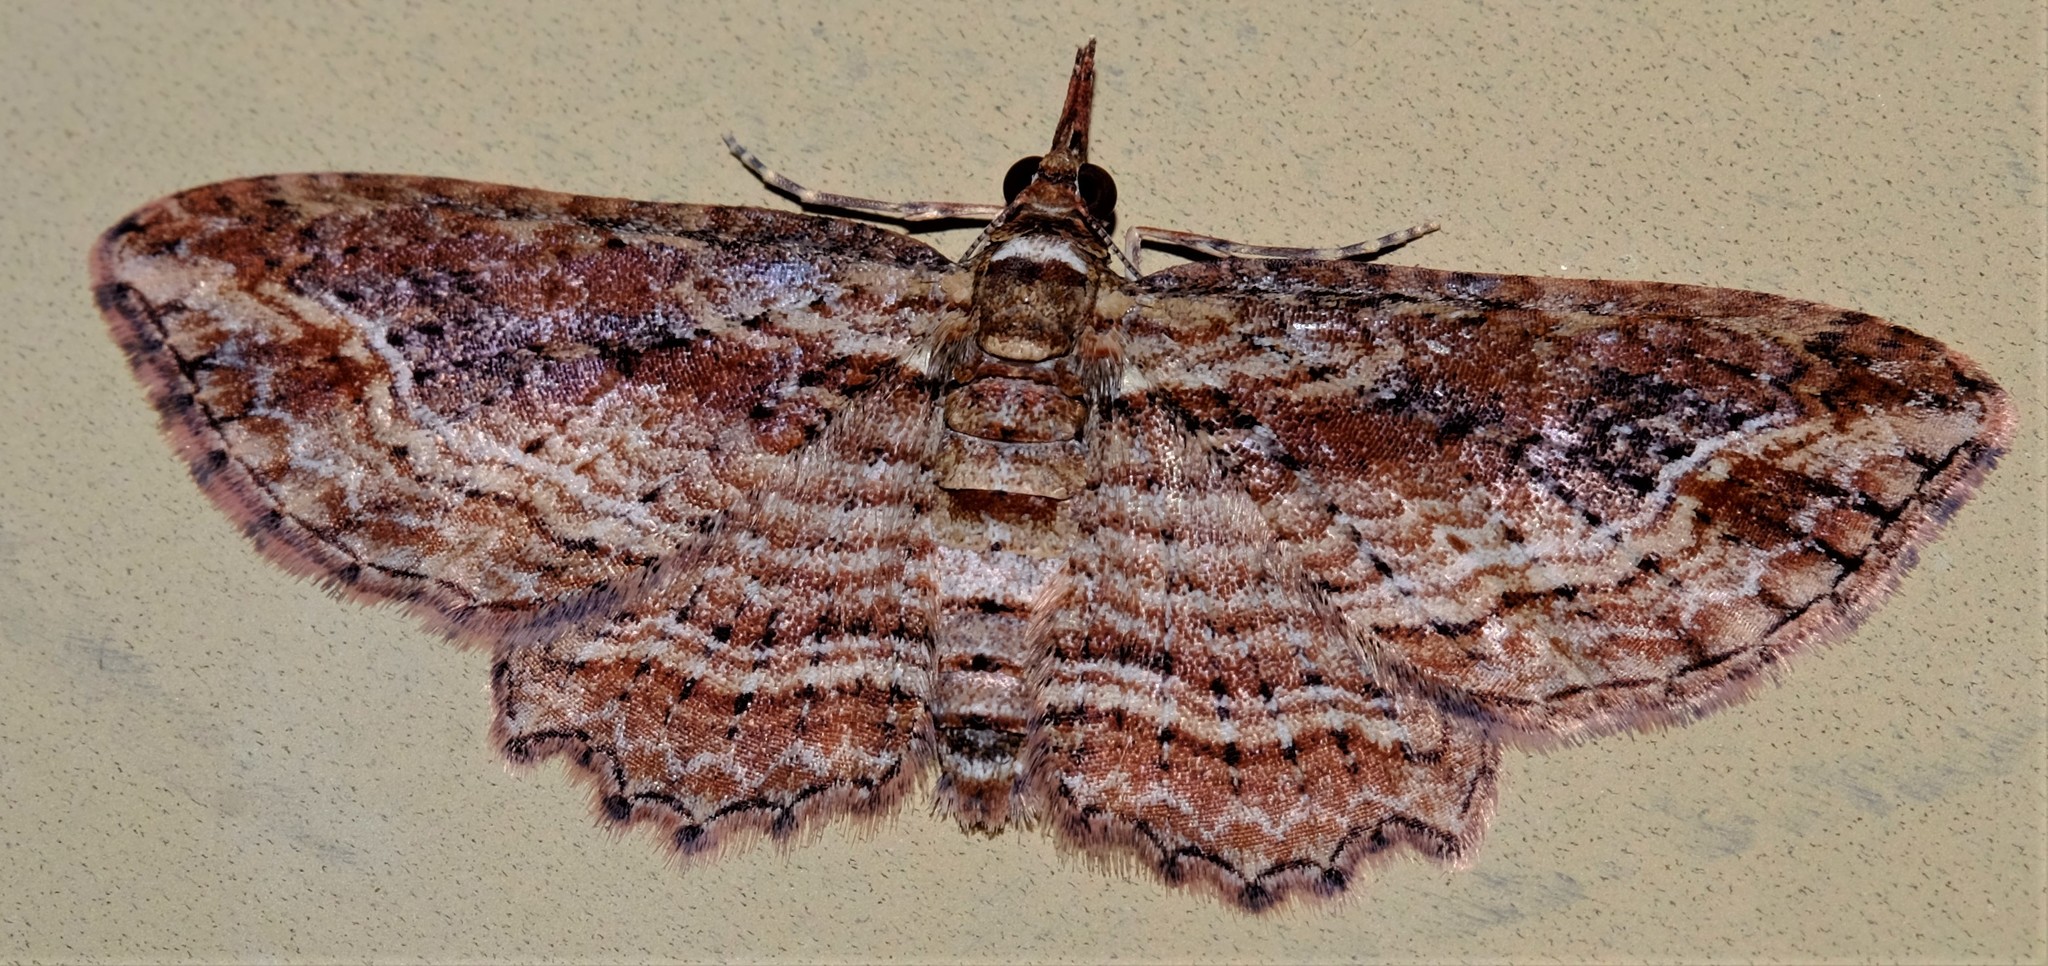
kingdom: Animalia
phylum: Arthropoda
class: Insecta
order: Lepidoptera
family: Geometridae
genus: Chloroclystis
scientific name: Chloroclystis filata
